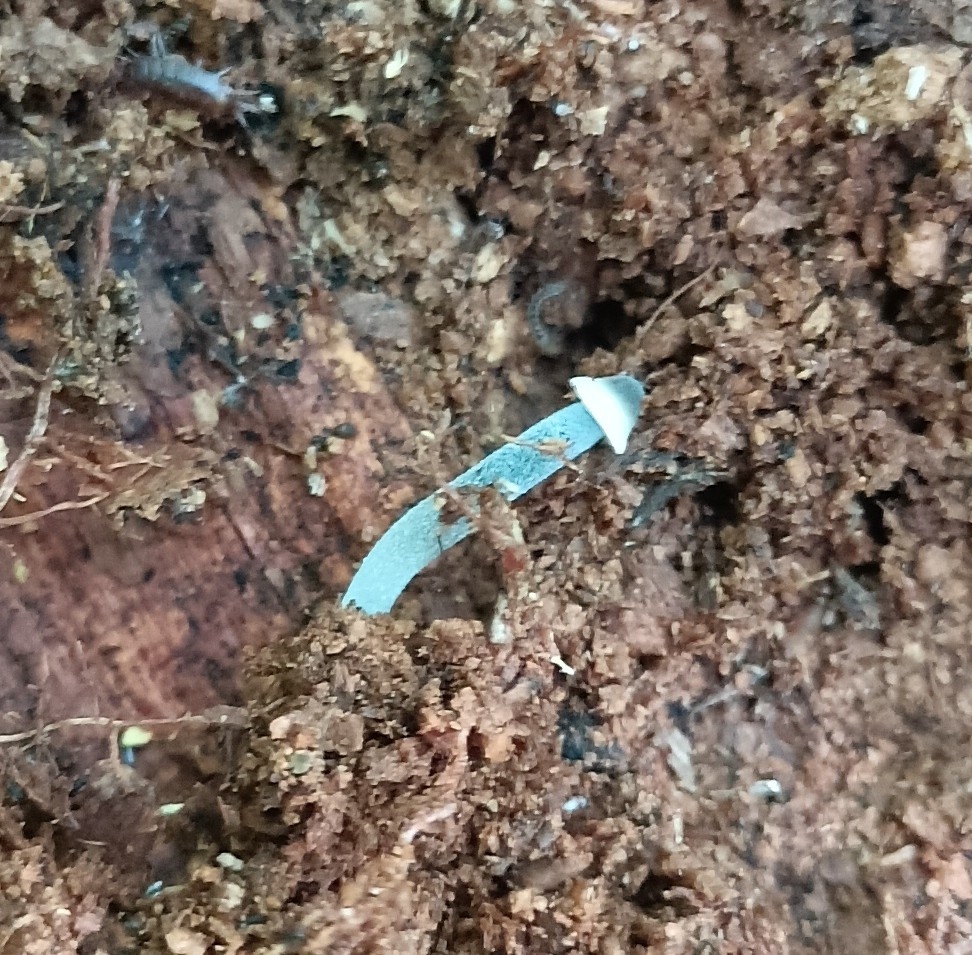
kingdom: Fungi
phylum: Basidiomycota
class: Agaricomycetes
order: Agaricales
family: Mycenaceae
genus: Mycena
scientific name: Mycena amicta
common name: Coldfoot bonnet
